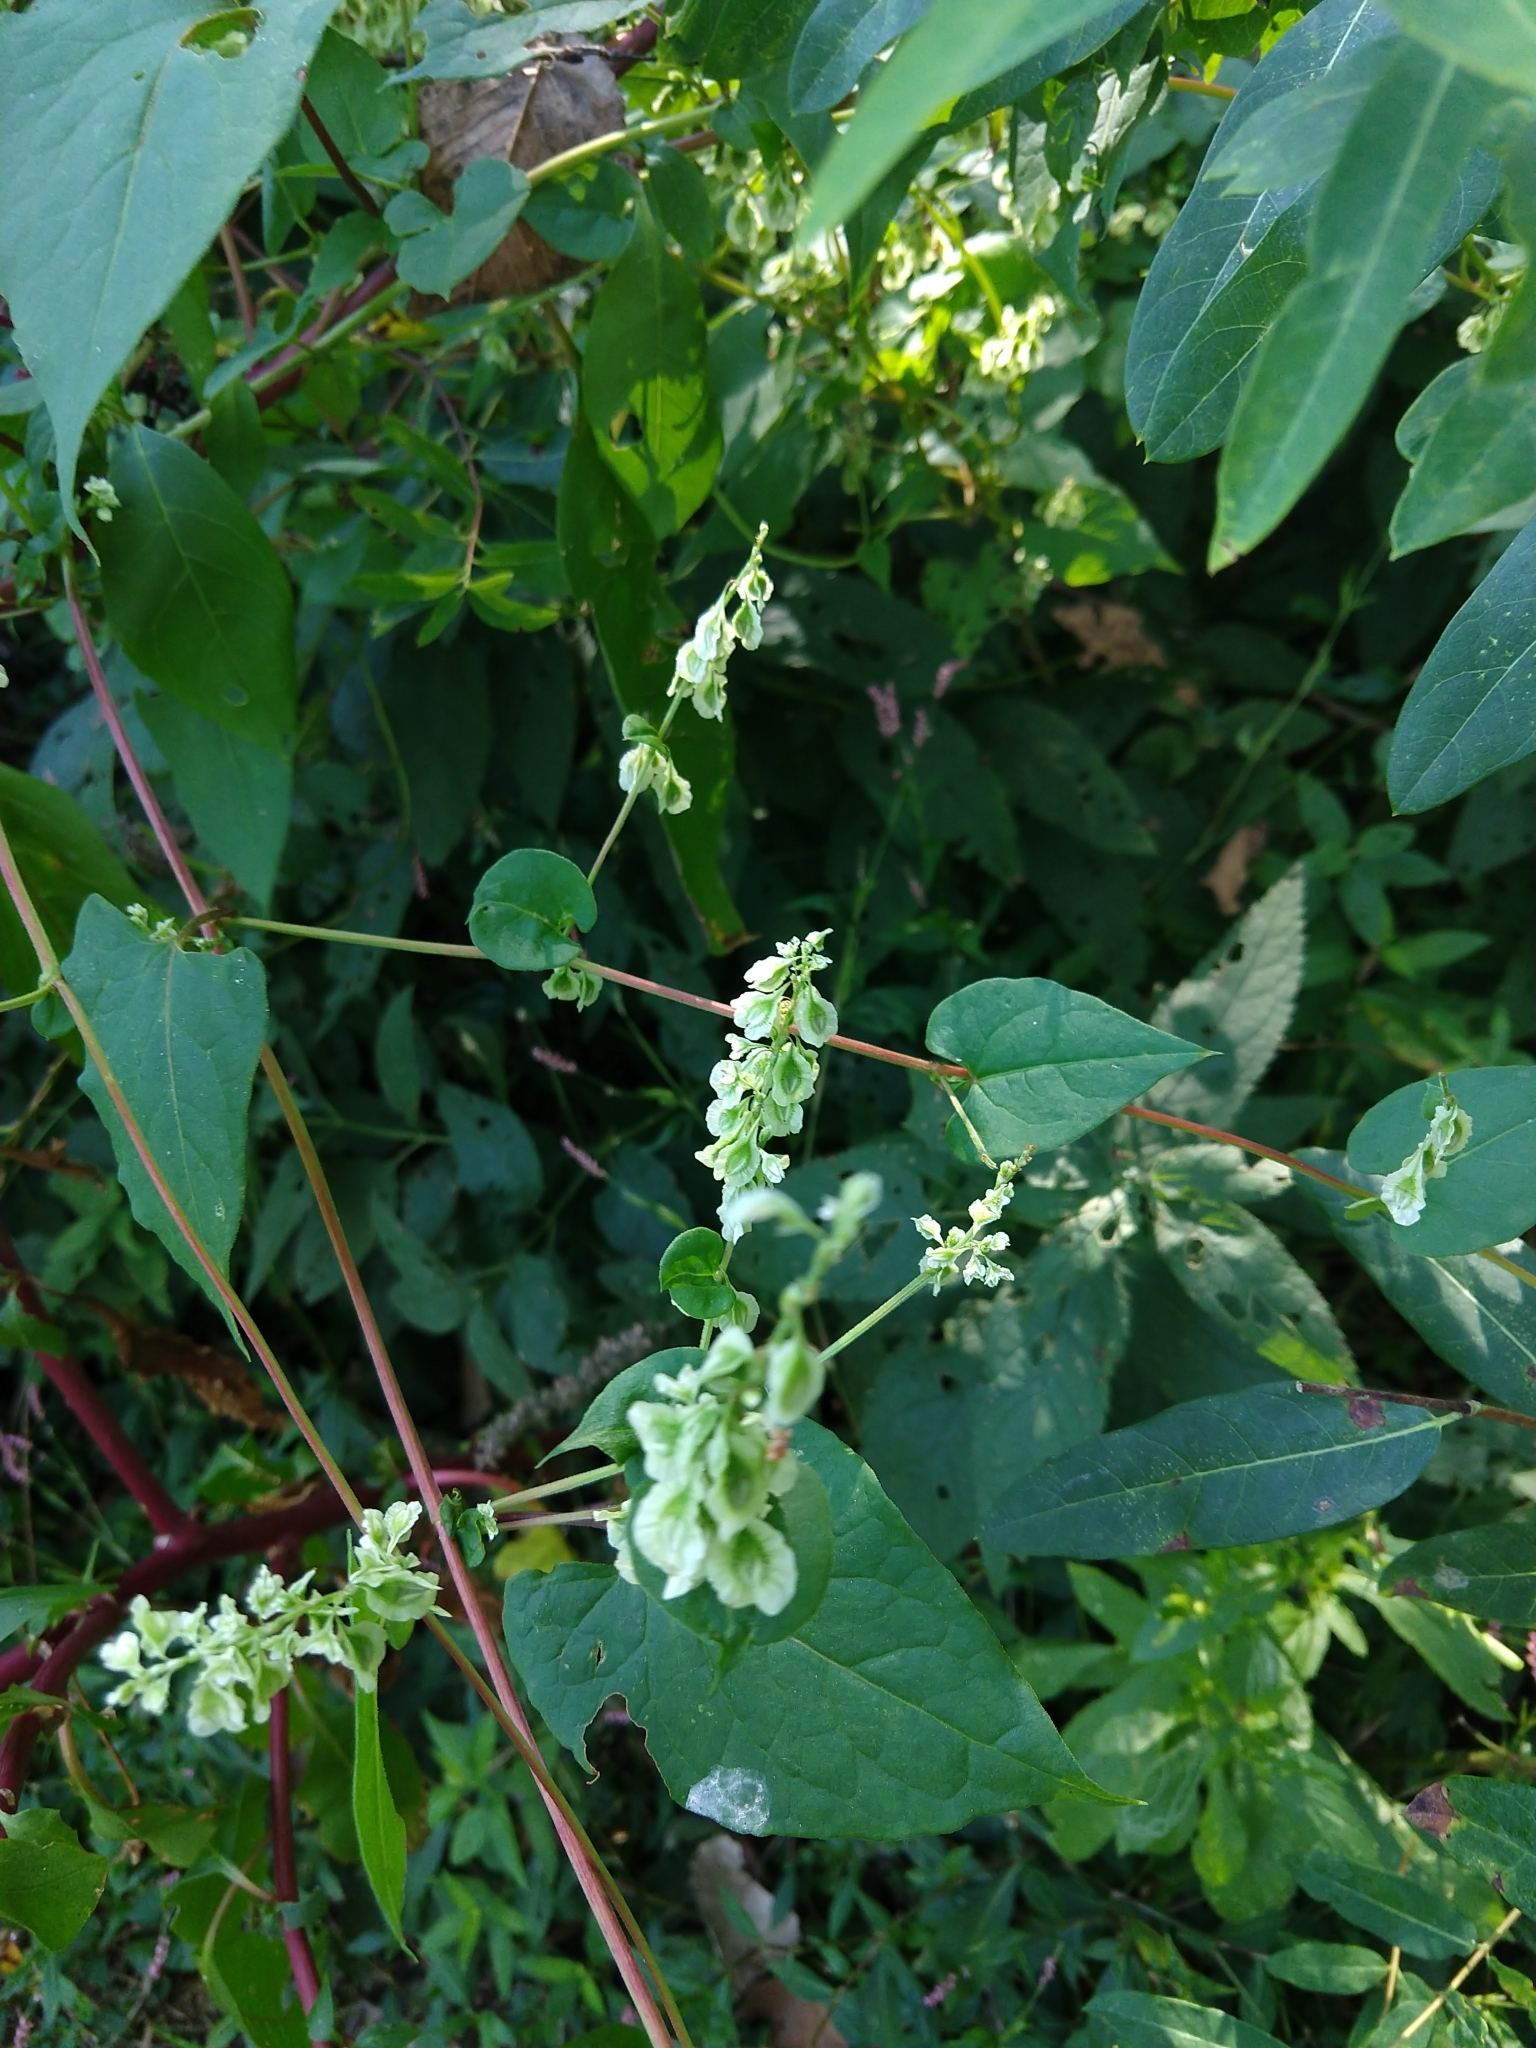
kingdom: Plantae
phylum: Tracheophyta
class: Magnoliopsida
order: Caryophyllales
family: Polygonaceae
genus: Fallopia
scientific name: Fallopia scandens
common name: Climbing false buckwheat
